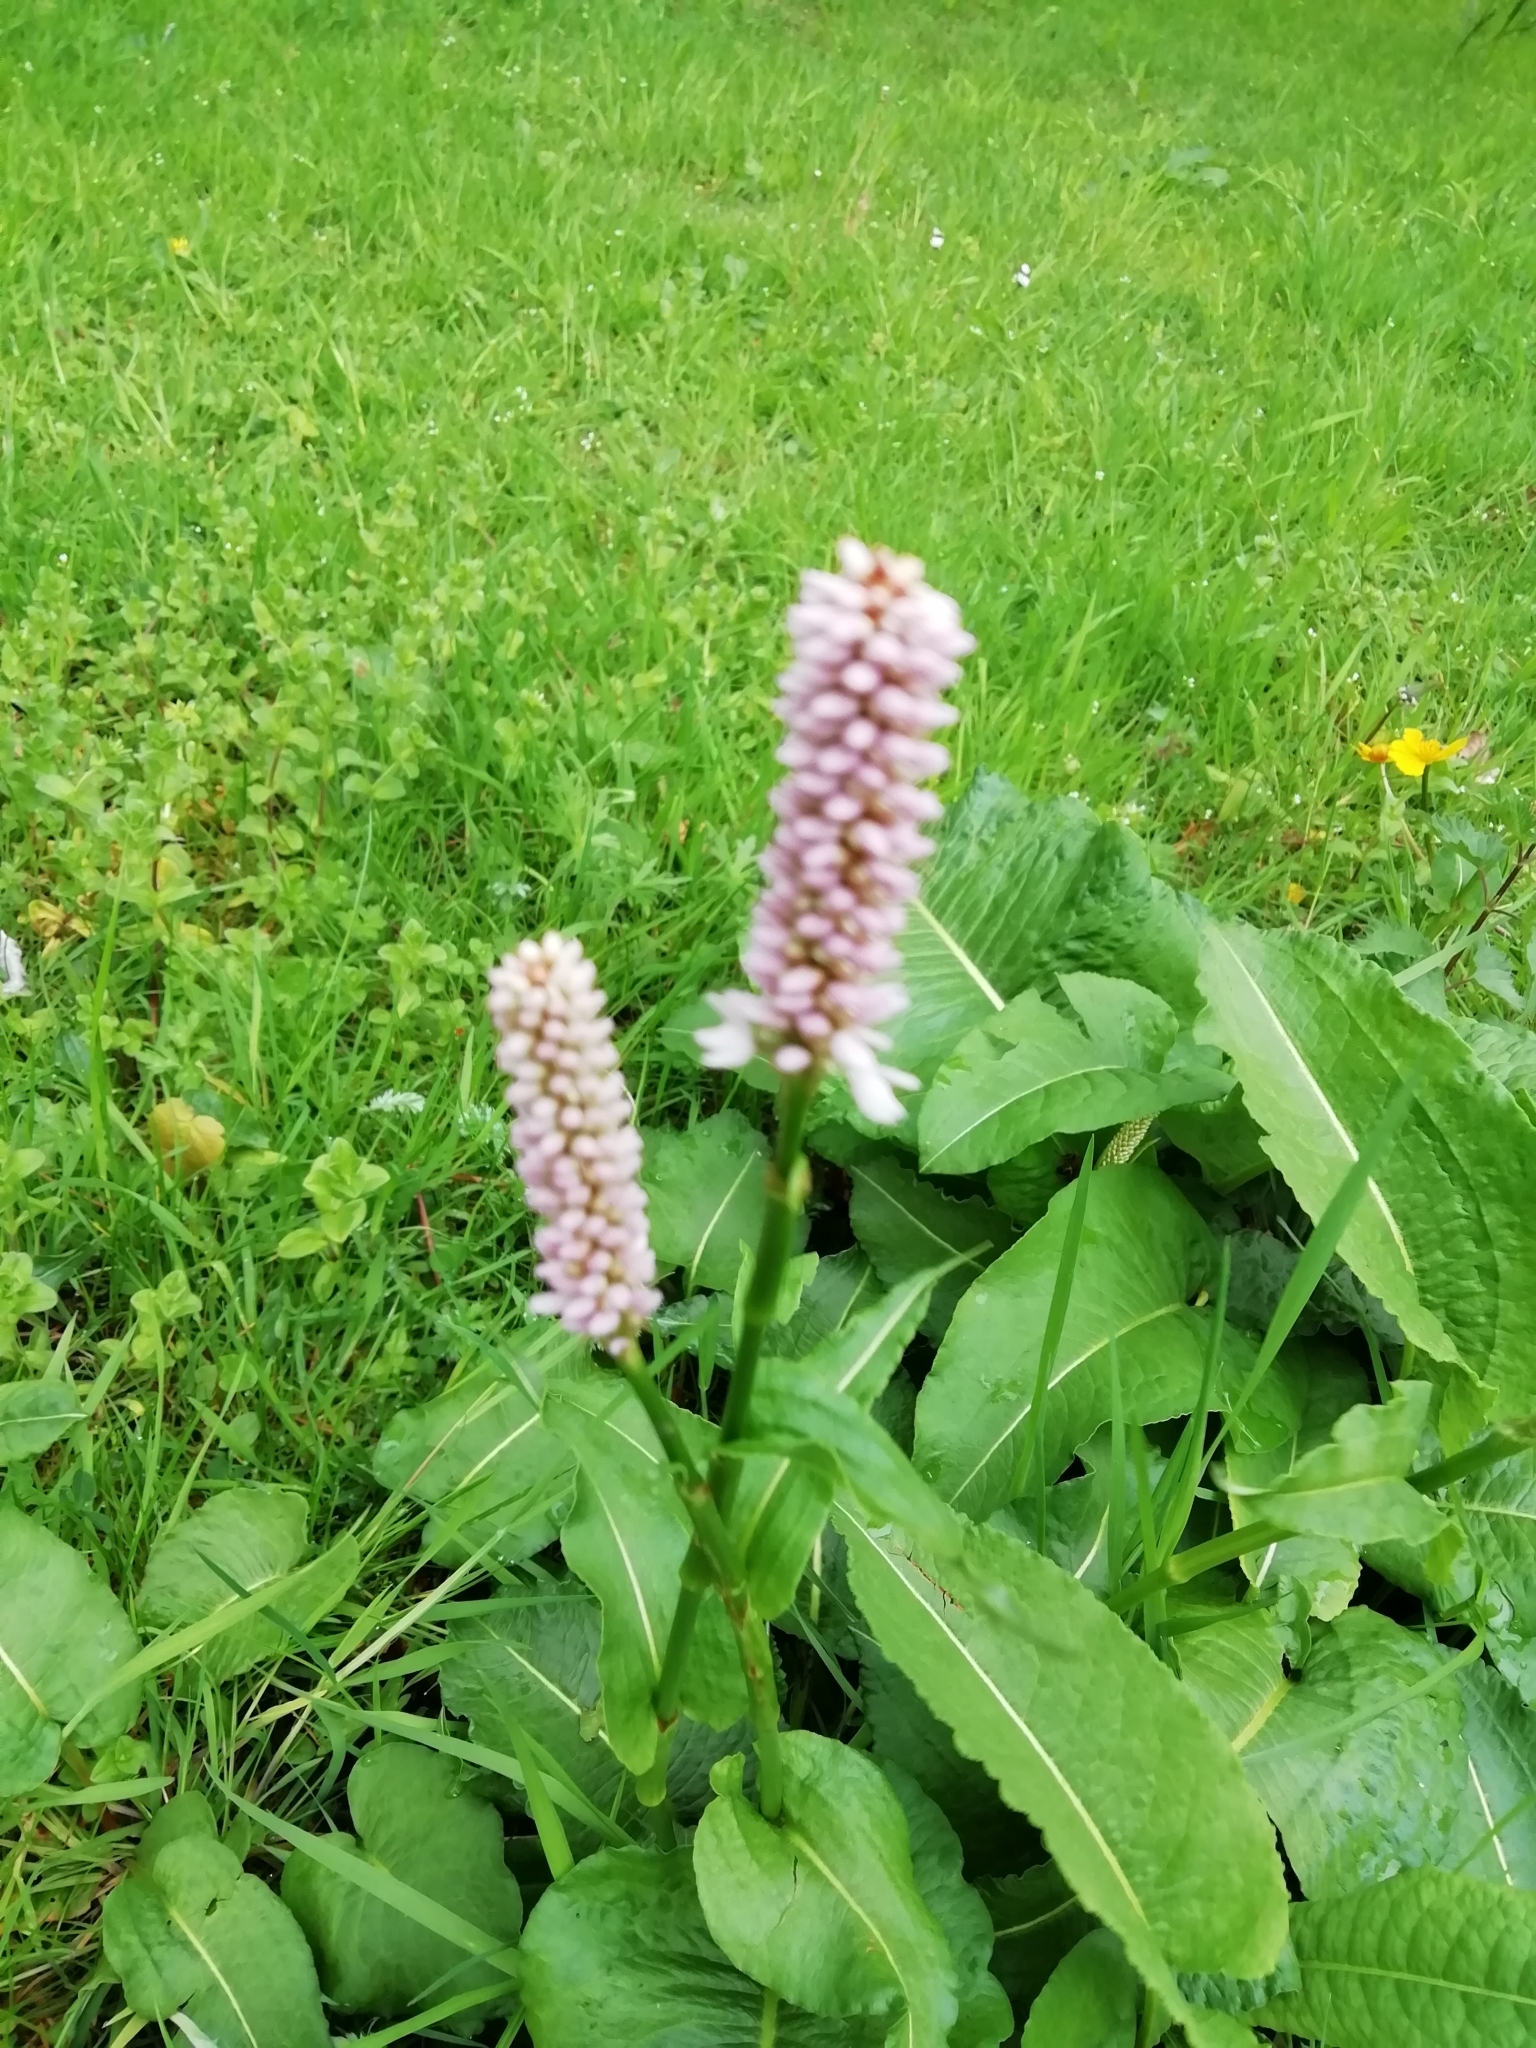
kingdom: Plantae
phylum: Tracheophyta
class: Magnoliopsida
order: Caryophyllales
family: Polygonaceae
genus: Bistorta
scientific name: Bistorta officinalis
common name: Common bistort
